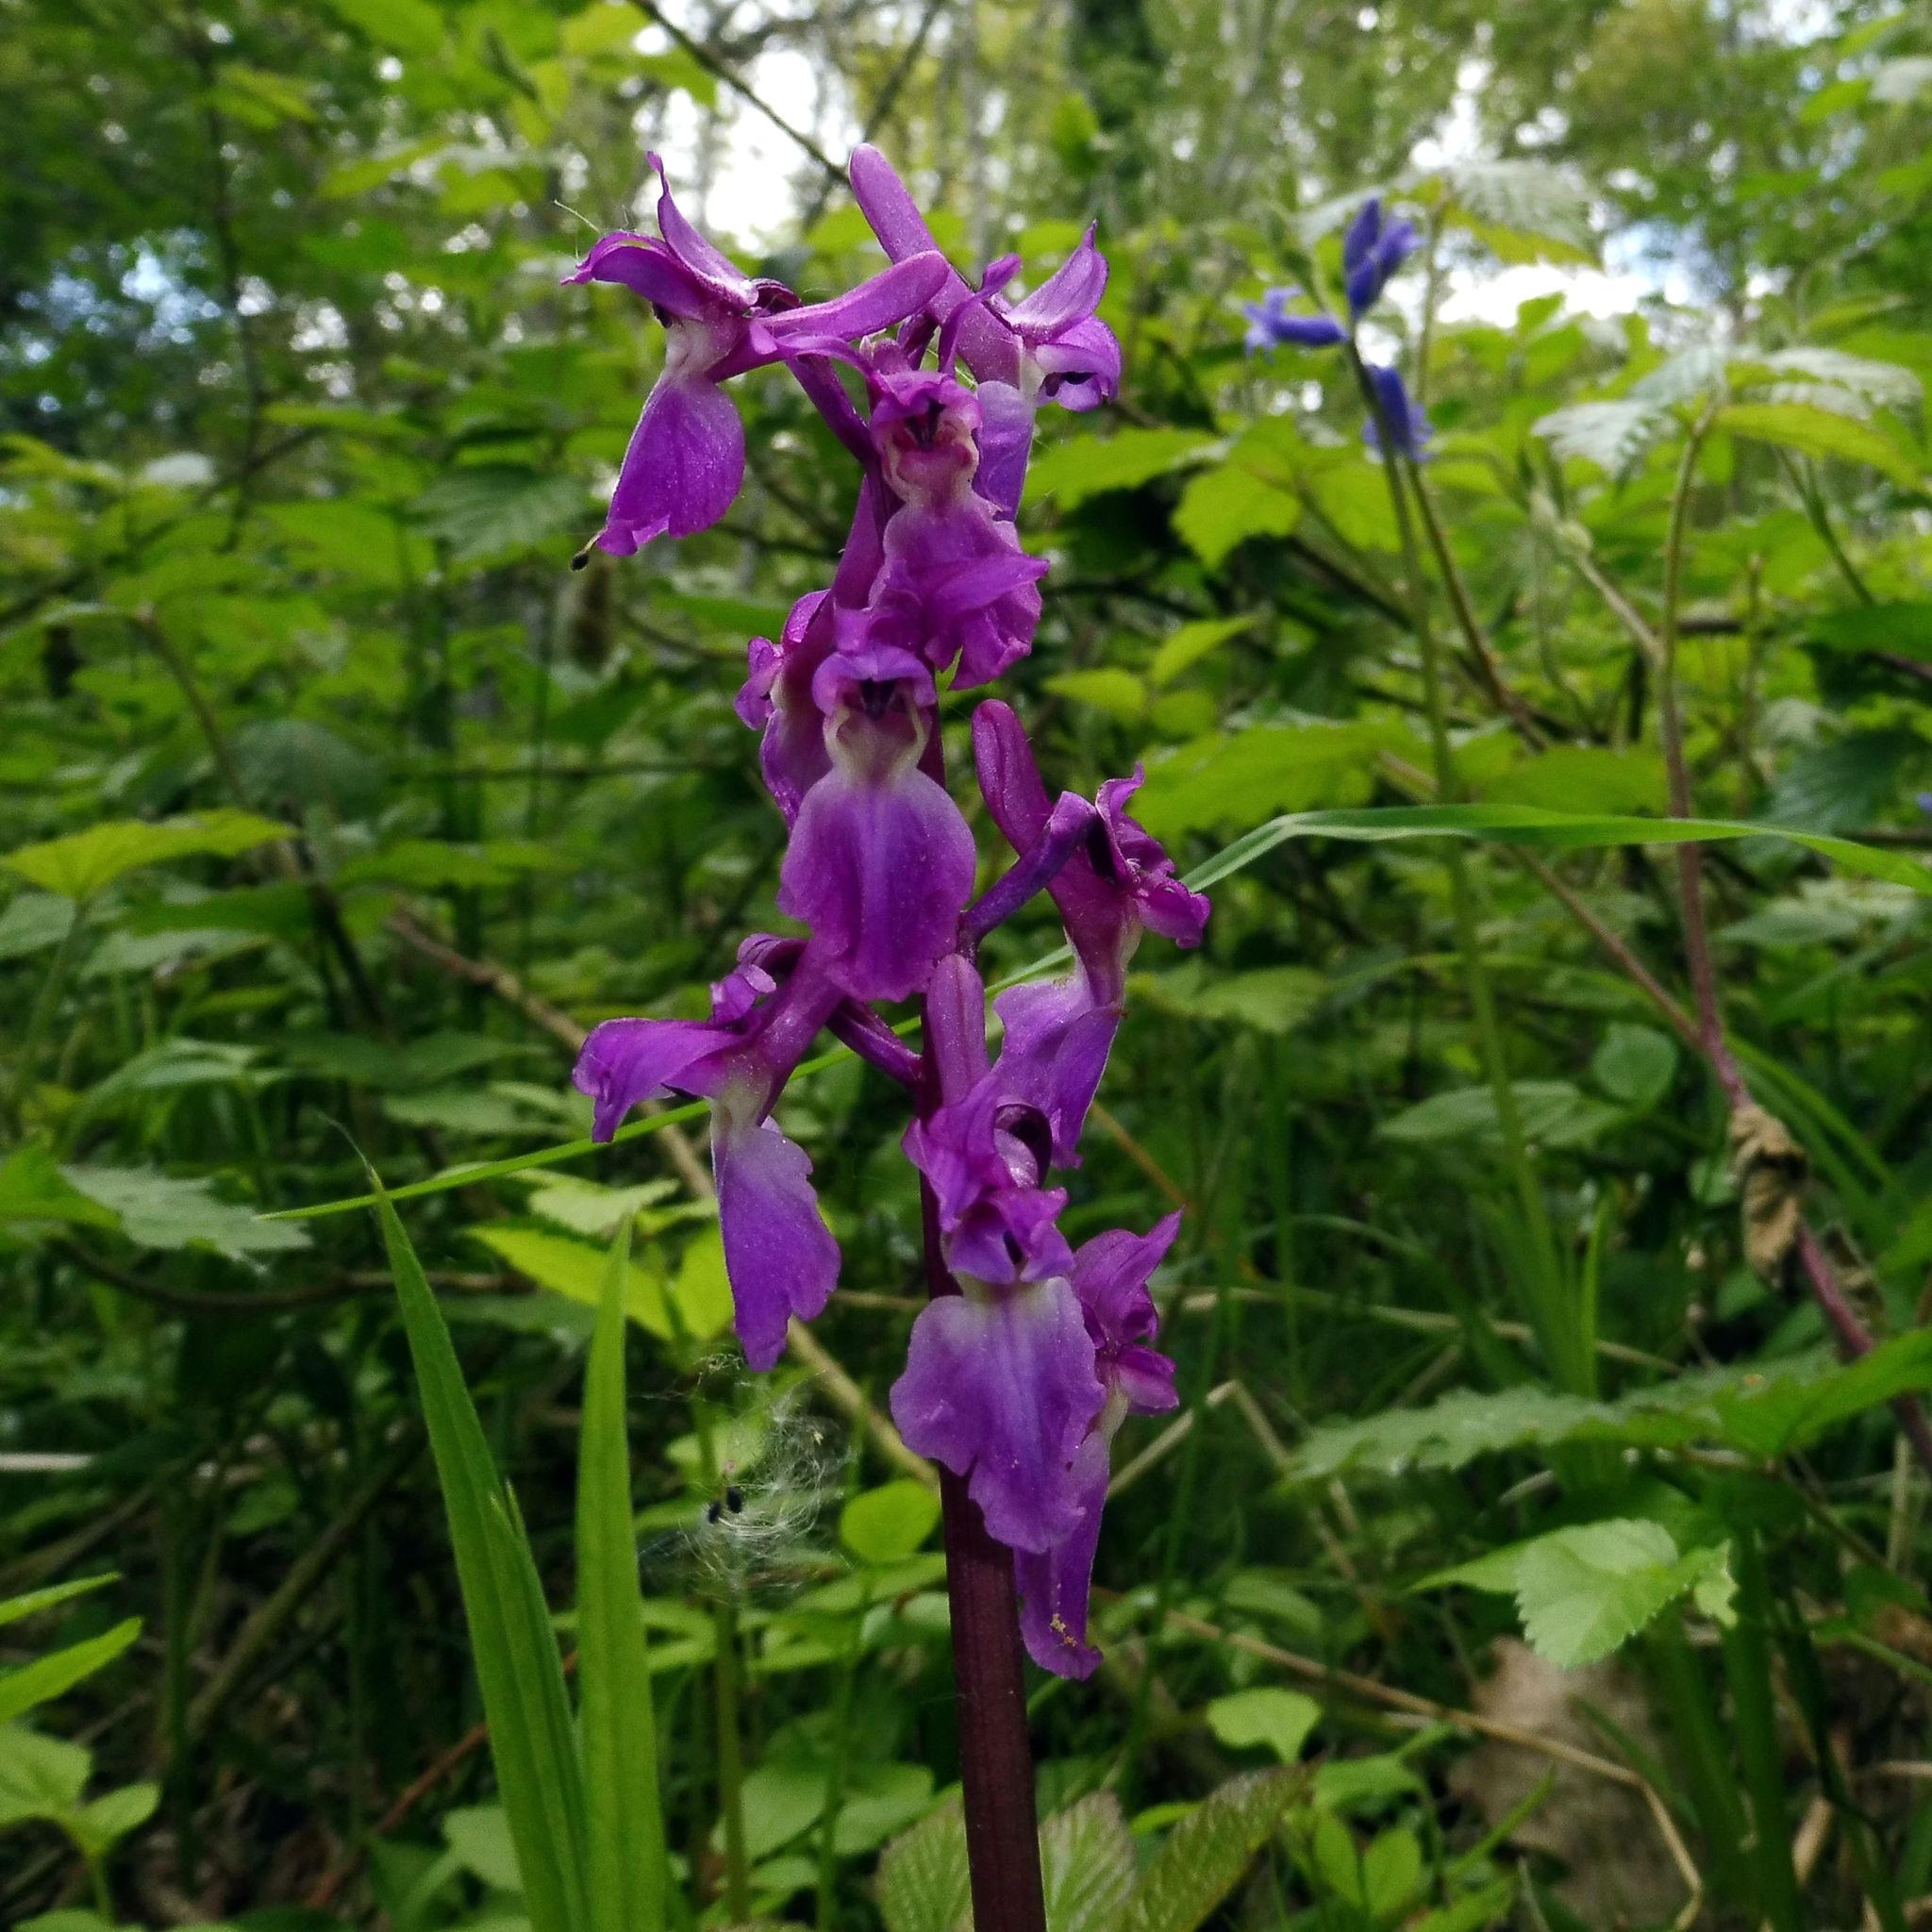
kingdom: Plantae
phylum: Tracheophyta
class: Liliopsida
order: Asparagales
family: Orchidaceae
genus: Orchis
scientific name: Orchis mascula
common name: Early-purple orchid
